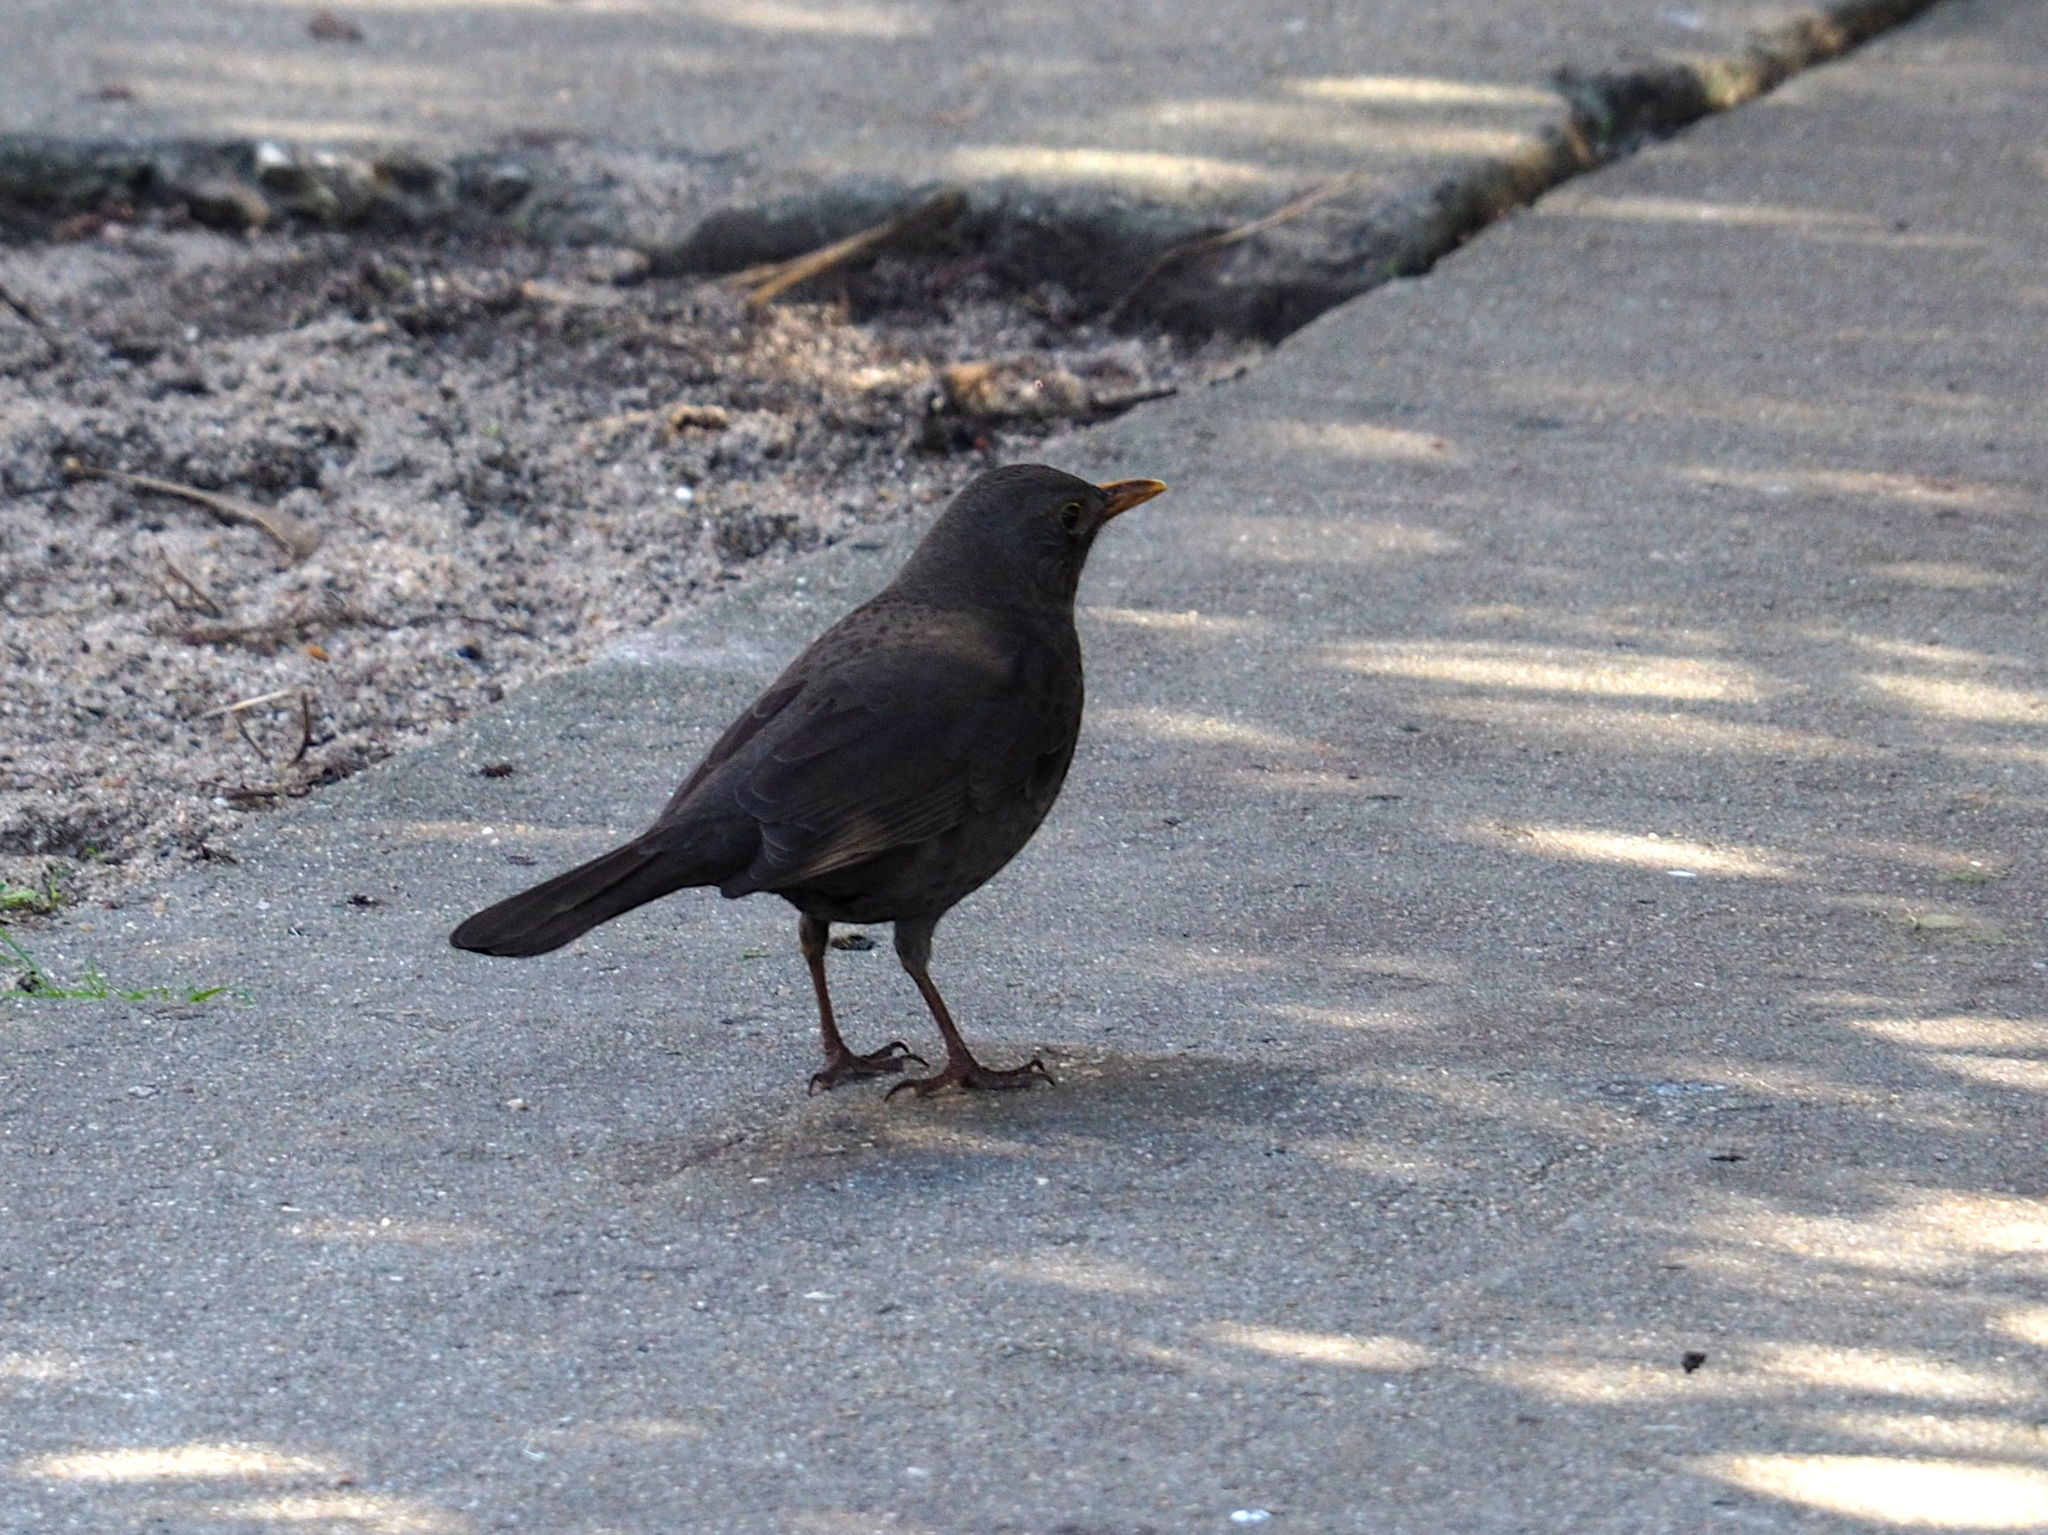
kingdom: Animalia
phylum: Chordata
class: Aves
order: Passeriformes
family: Turdidae
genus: Turdus
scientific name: Turdus merula
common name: Common blackbird
